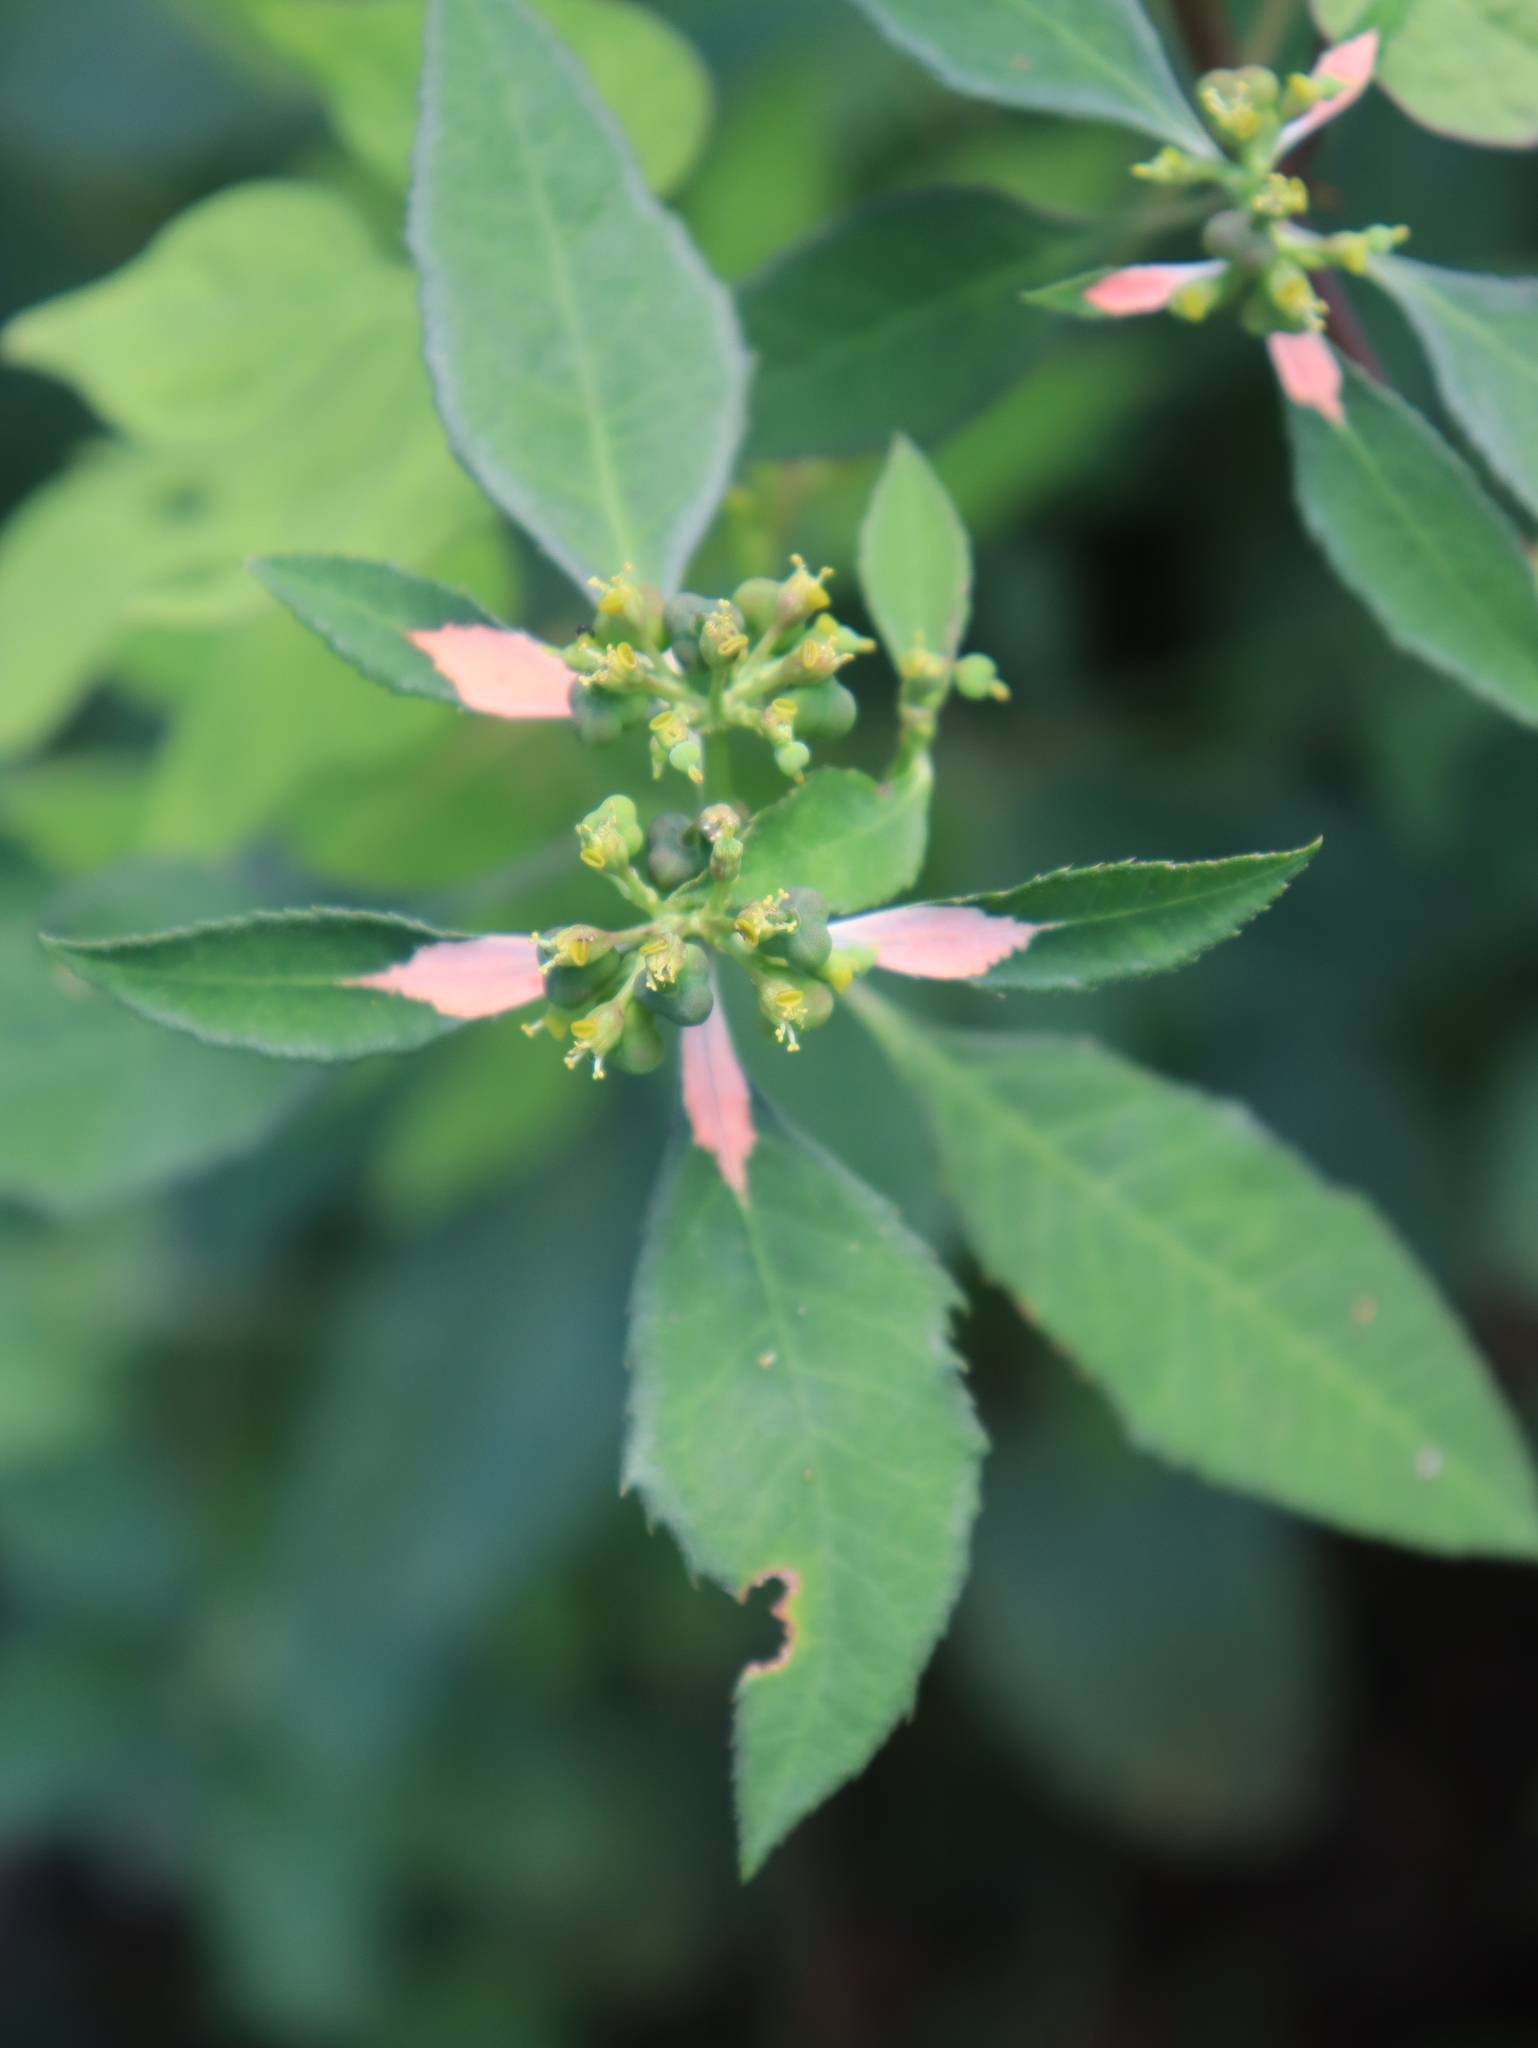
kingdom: Plantae
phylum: Tracheophyta
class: Magnoliopsida
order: Malpighiales
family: Euphorbiaceae
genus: Euphorbia
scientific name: Euphorbia heterophylla
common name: Mexican fireplant
